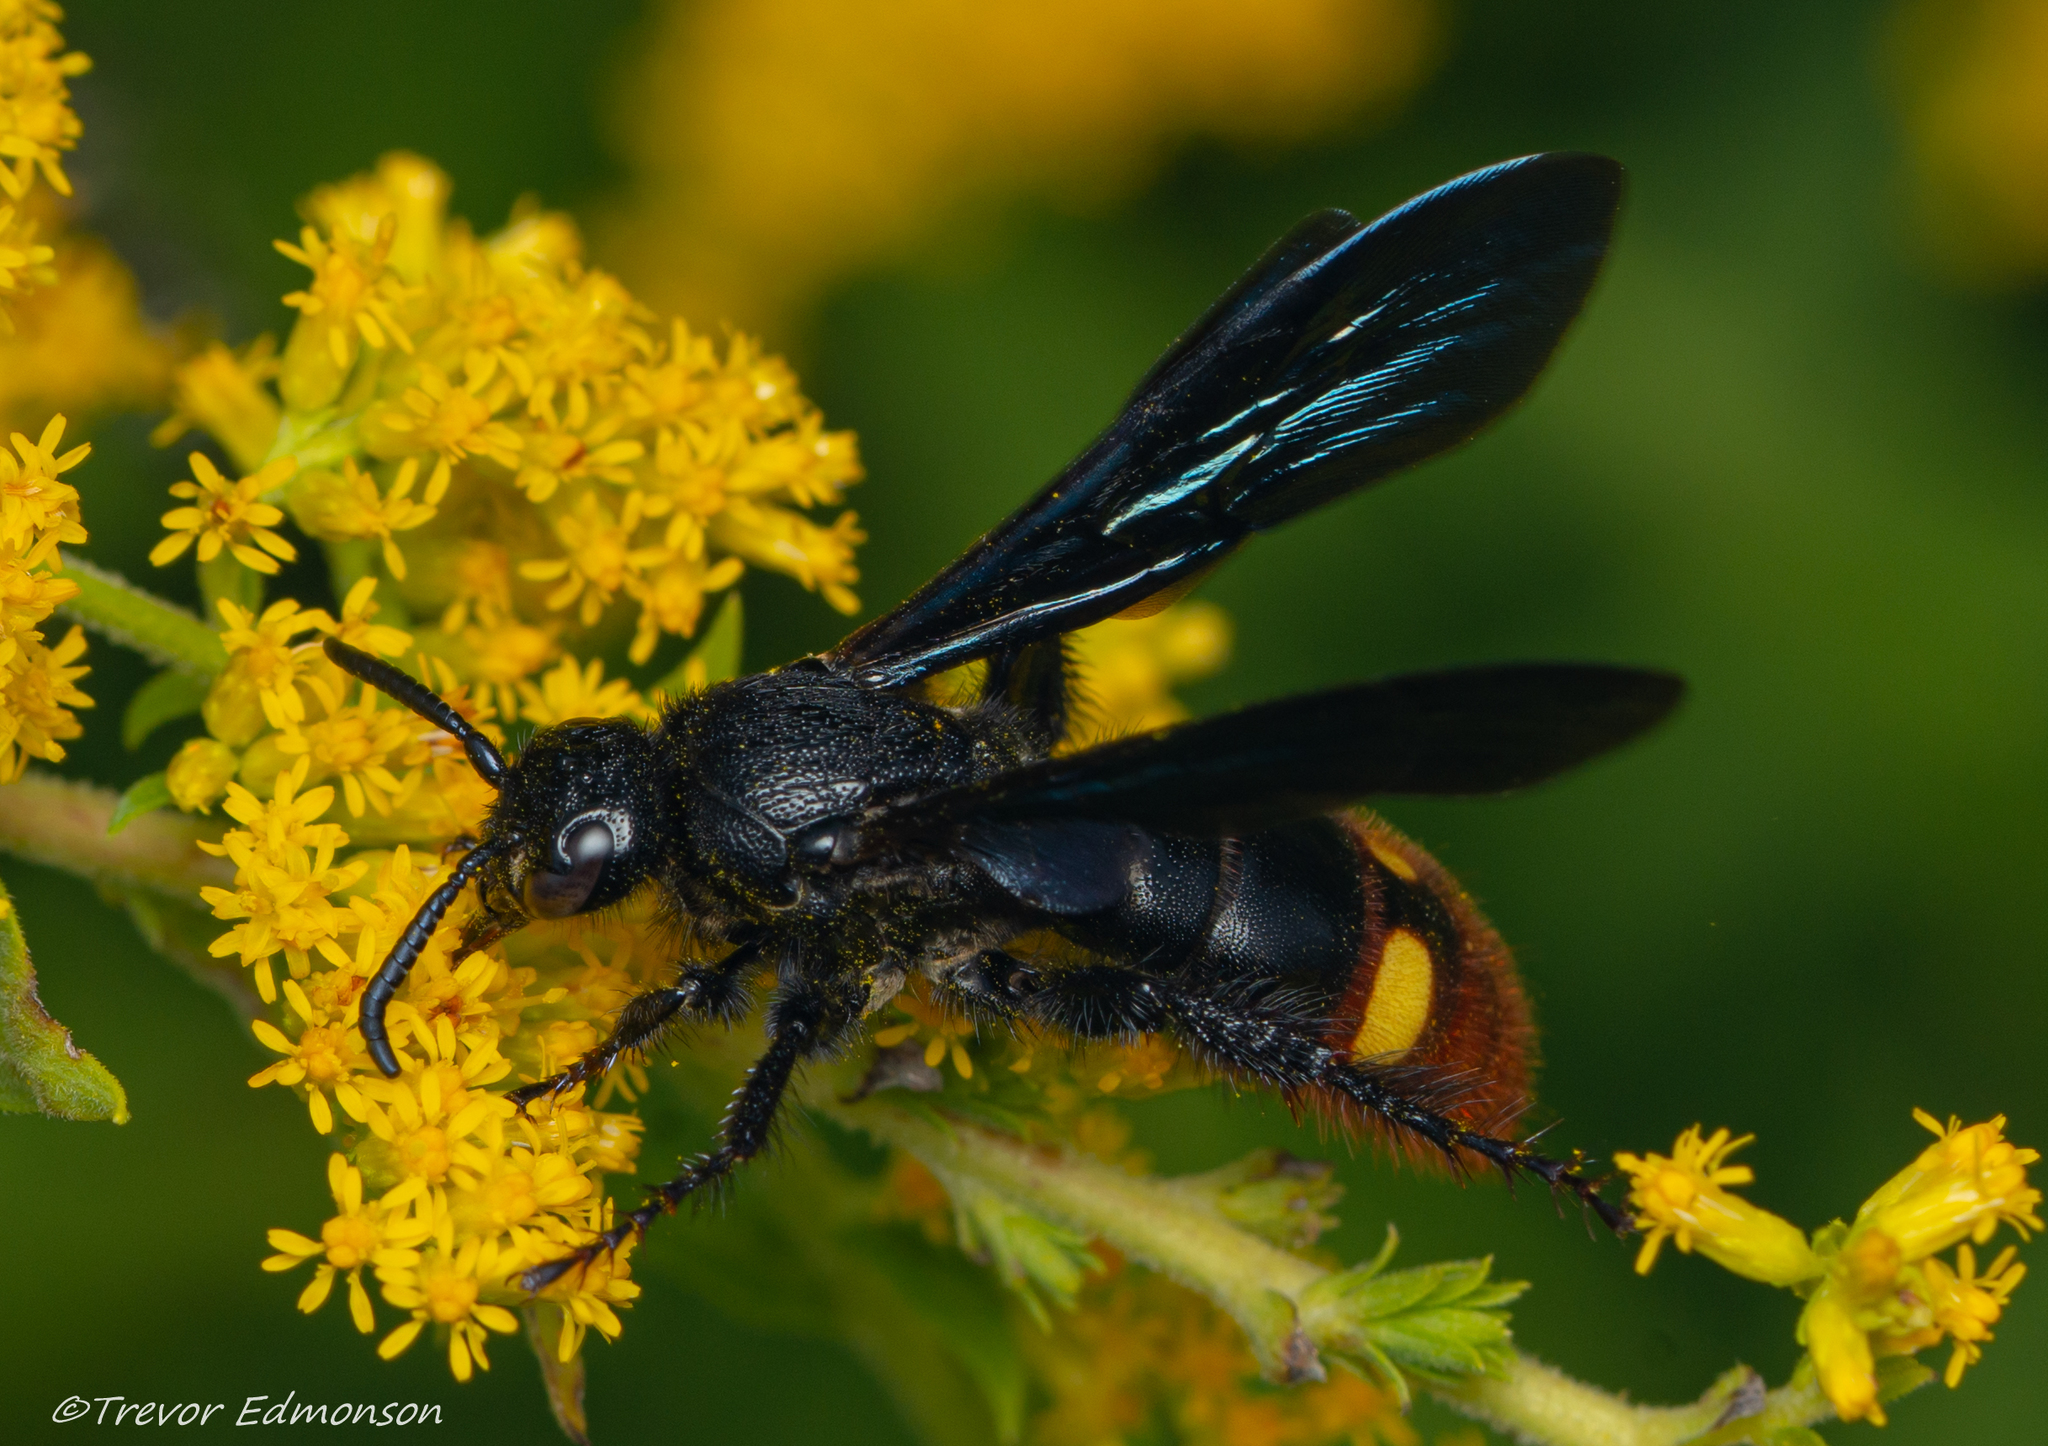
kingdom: Animalia
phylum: Arthropoda
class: Insecta
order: Hymenoptera
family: Scoliidae
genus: Scolia
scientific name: Scolia dubia
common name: Blue-winged scoliid wasp
